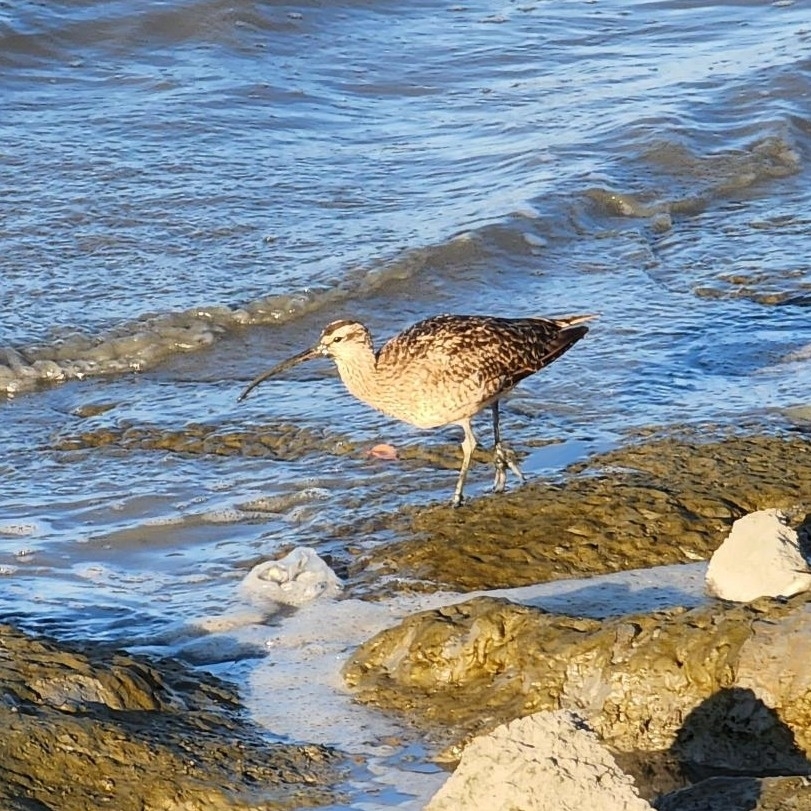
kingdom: Animalia
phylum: Chordata
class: Aves
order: Charadriiformes
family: Scolopacidae
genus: Numenius
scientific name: Numenius phaeopus
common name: Whimbrel
